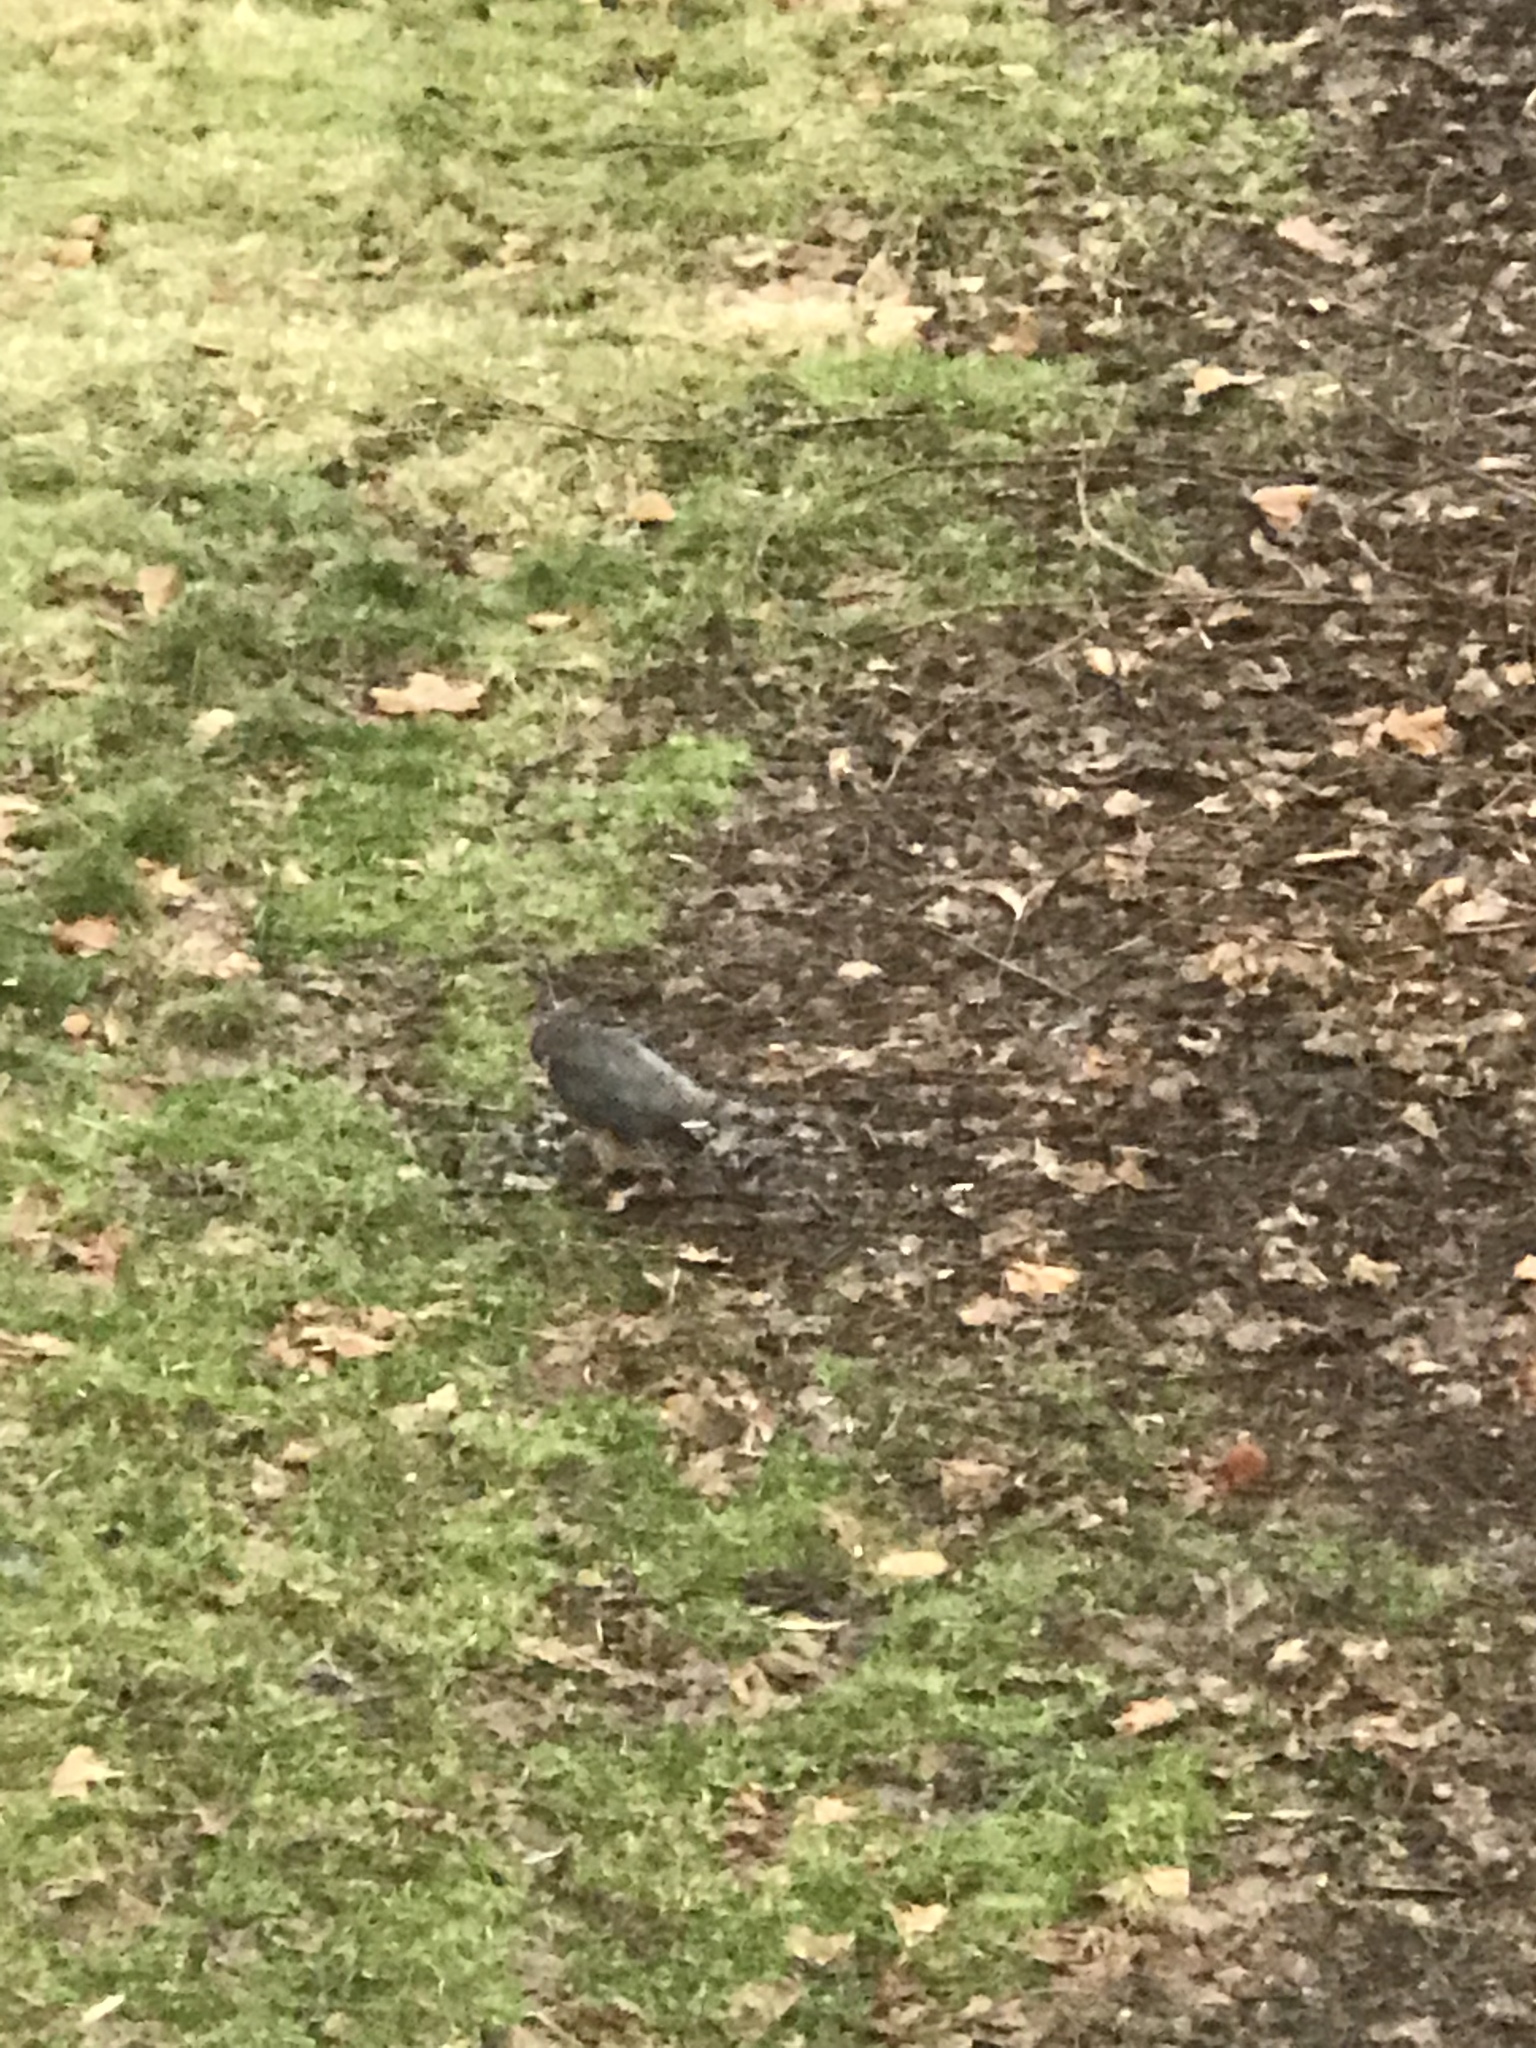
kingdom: Animalia
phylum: Chordata
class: Aves
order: Accipitriformes
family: Accipitridae
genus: Accipiter
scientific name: Accipiter
